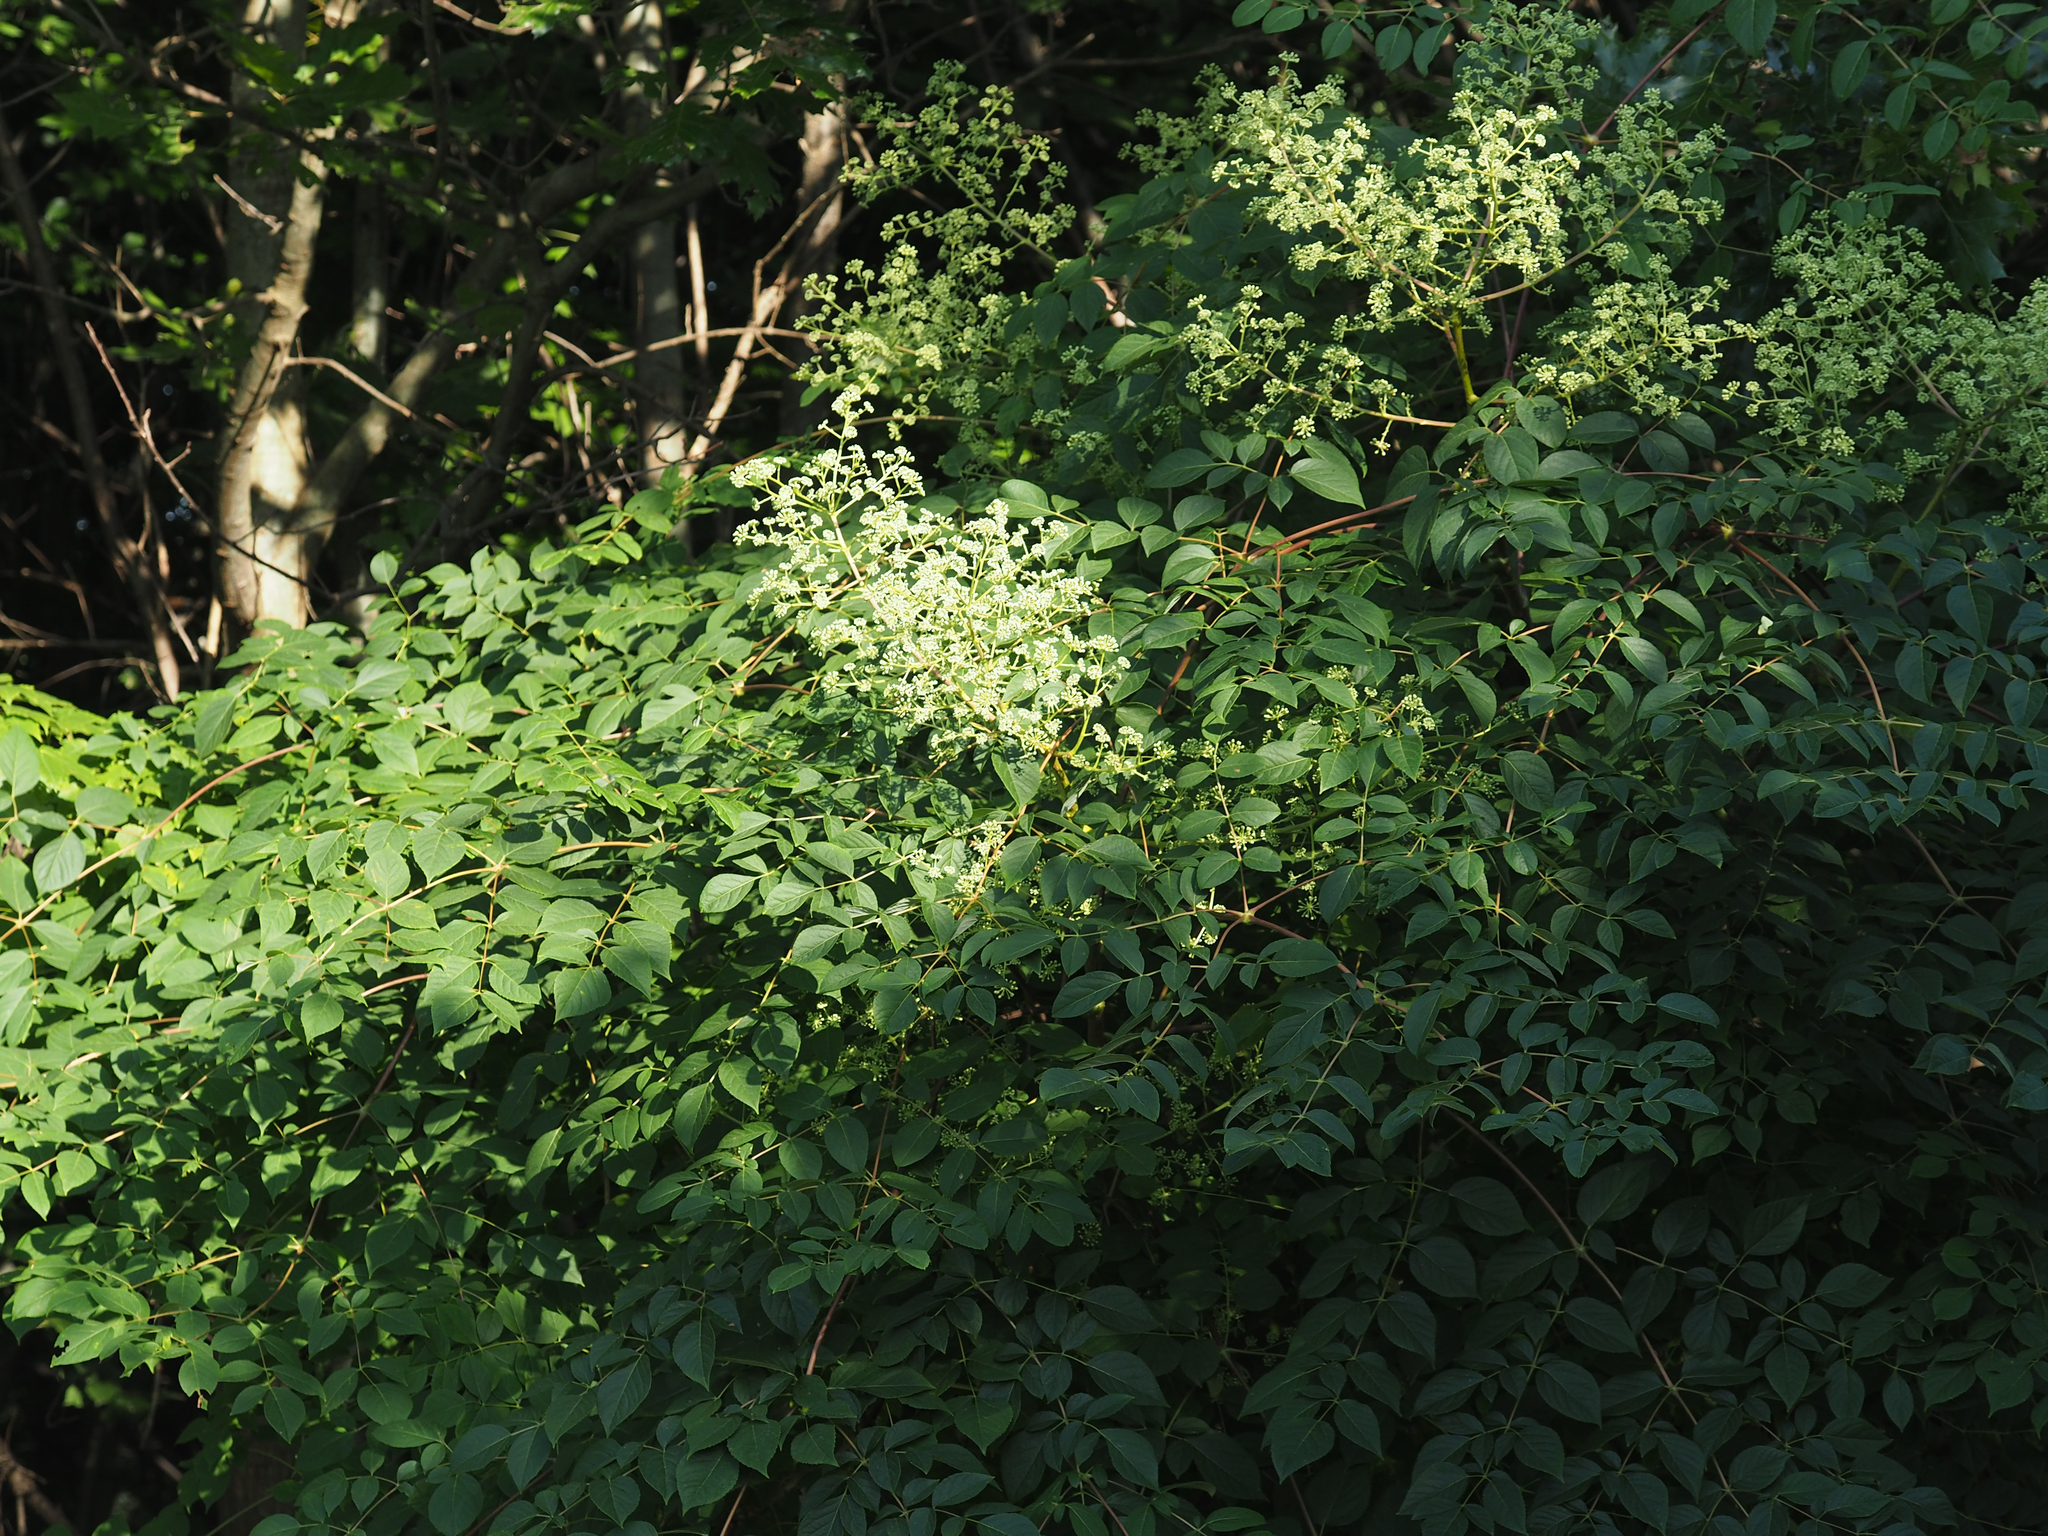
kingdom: Plantae
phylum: Tracheophyta
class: Magnoliopsida
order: Apiales
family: Araliaceae
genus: Aralia
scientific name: Aralia spinosa
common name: Hercules'-club
